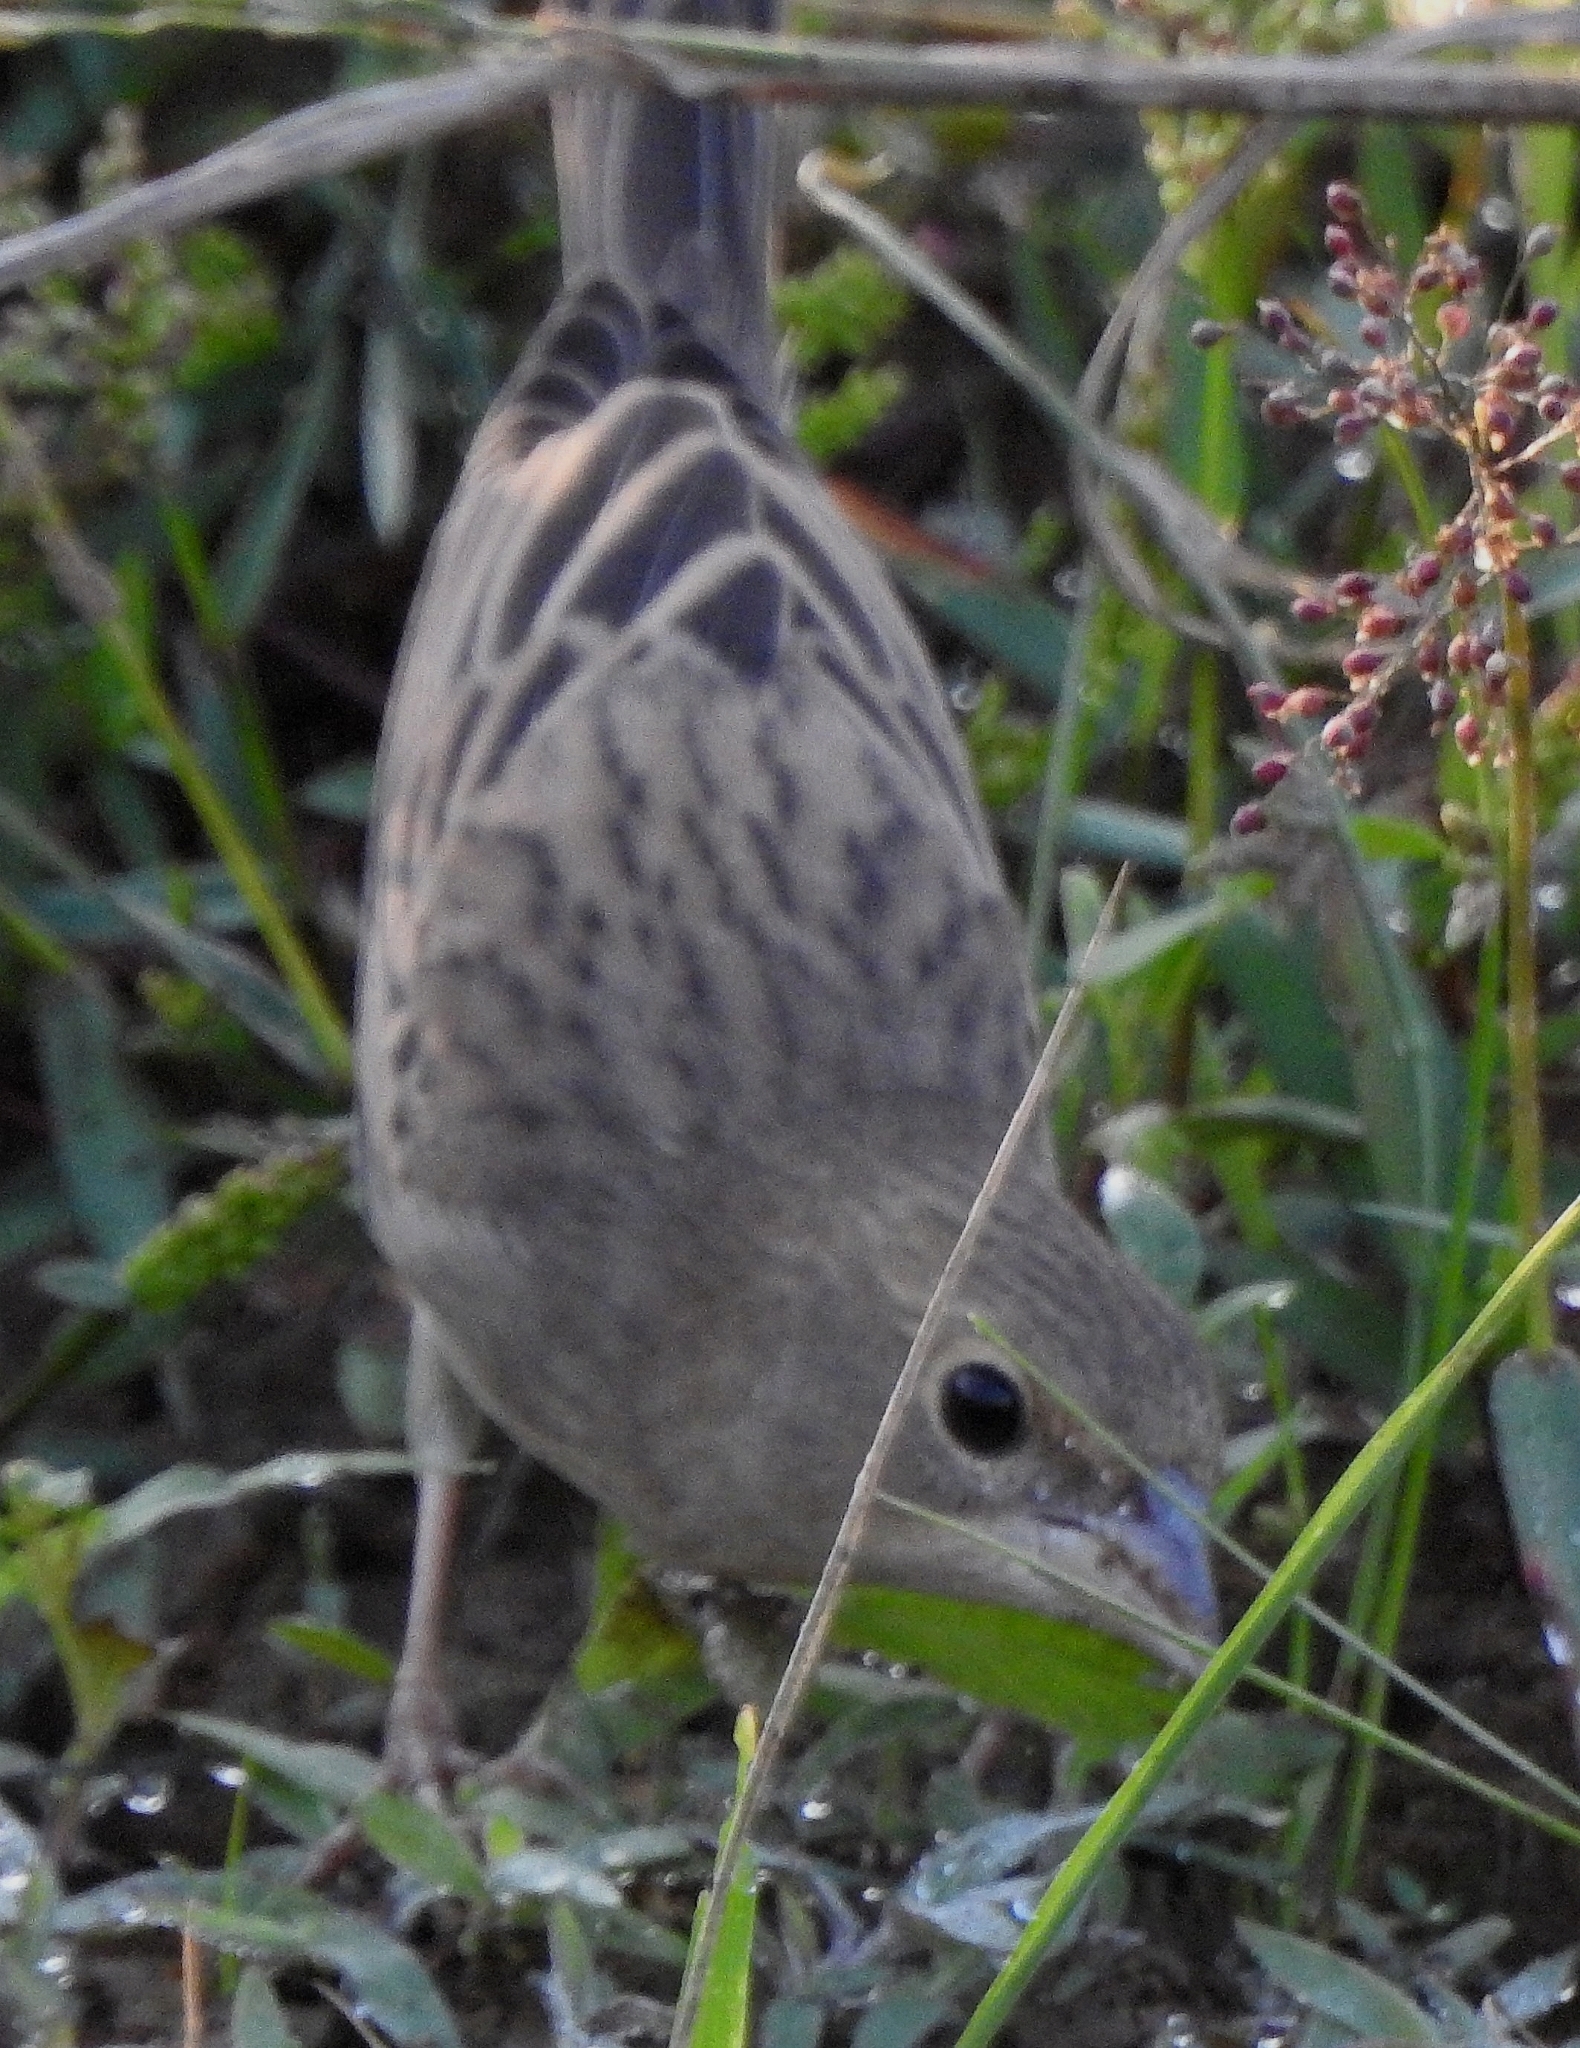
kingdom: Animalia
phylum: Chordata
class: Aves
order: Passeriformes
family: Emberizidae
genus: Emberiza
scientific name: Emberiza bruniceps
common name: Red-headed bunting
